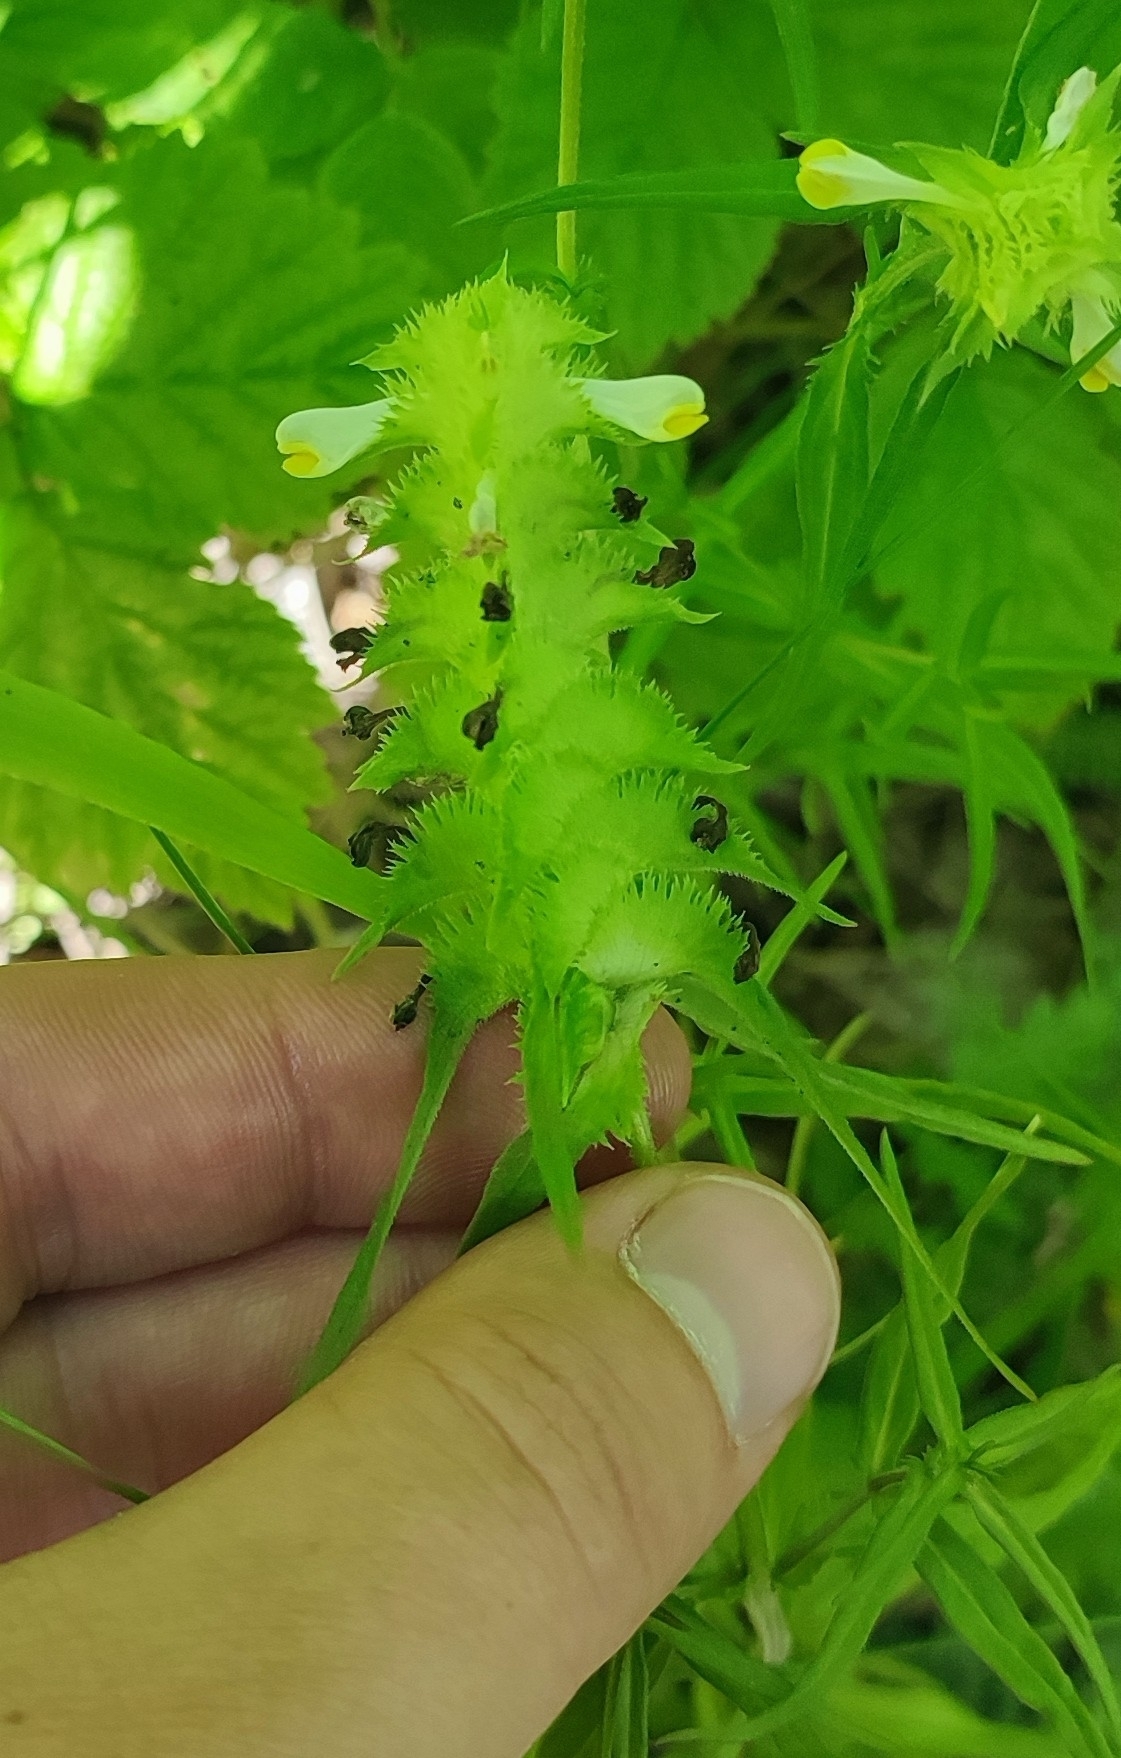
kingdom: Plantae
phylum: Tracheophyta
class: Magnoliopsida
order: Lamiales
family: Orobanchaceae
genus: Melampyrum
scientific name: Melampyrum cristatum
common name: Crested cow-wheat
